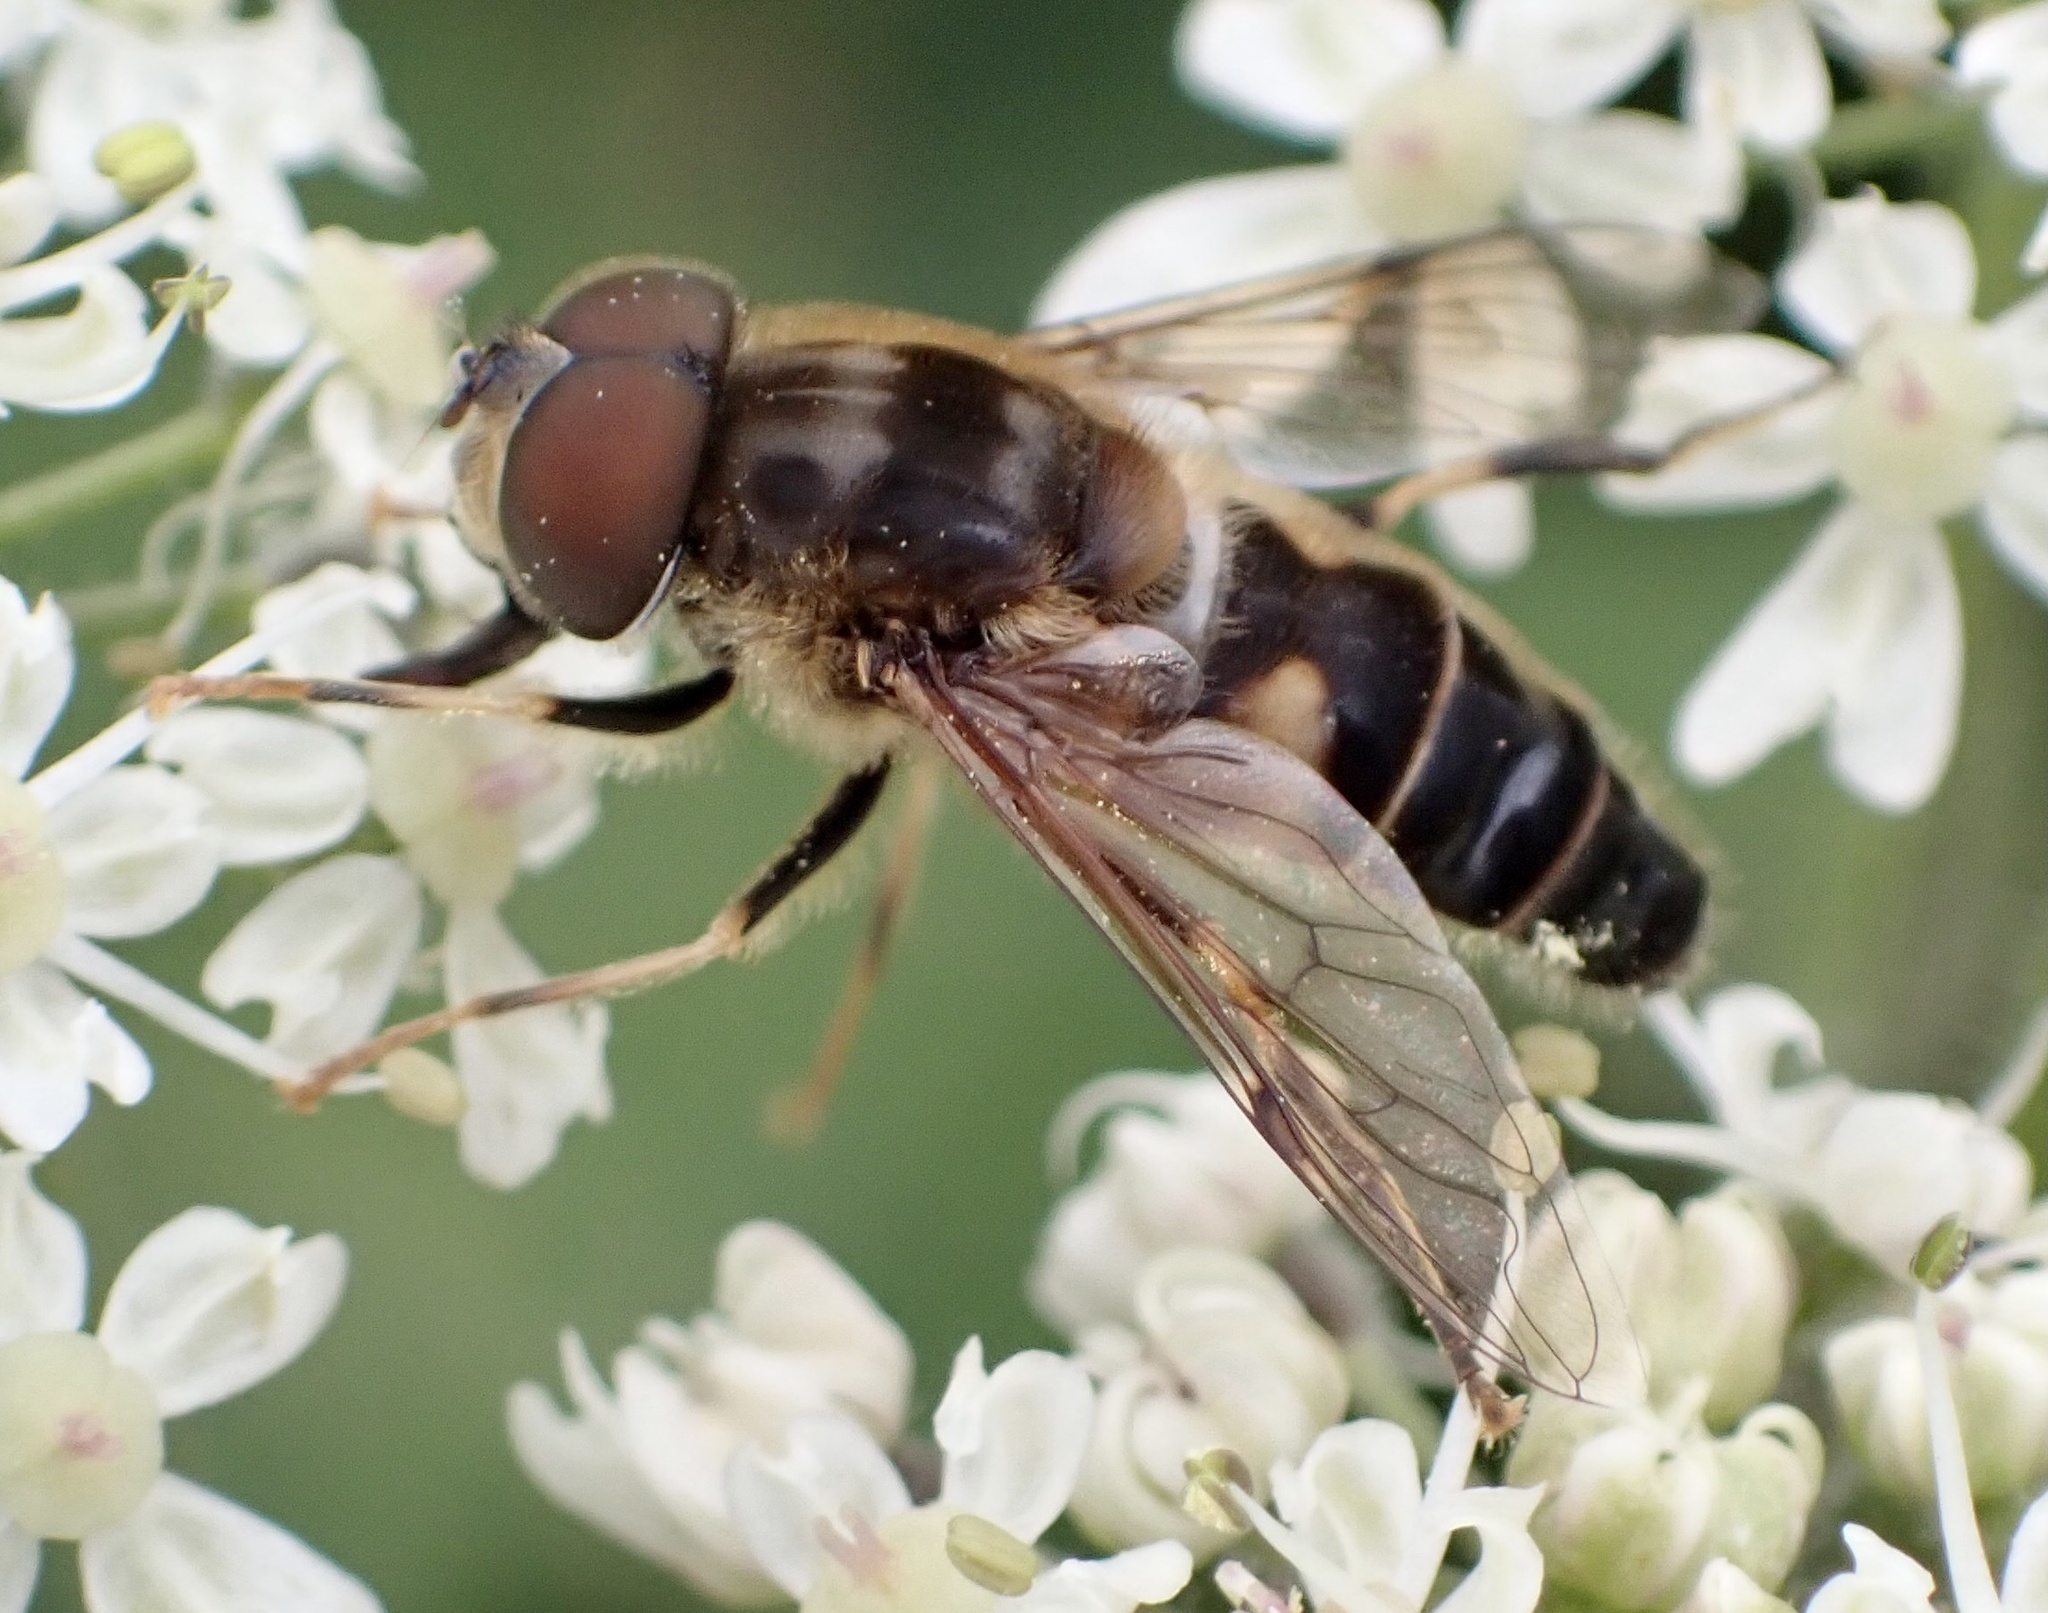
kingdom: Animalia
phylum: Arthropoda
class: Insecta
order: Diptera
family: Syrphidae
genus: Eristalis
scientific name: Eristalis pertinax
